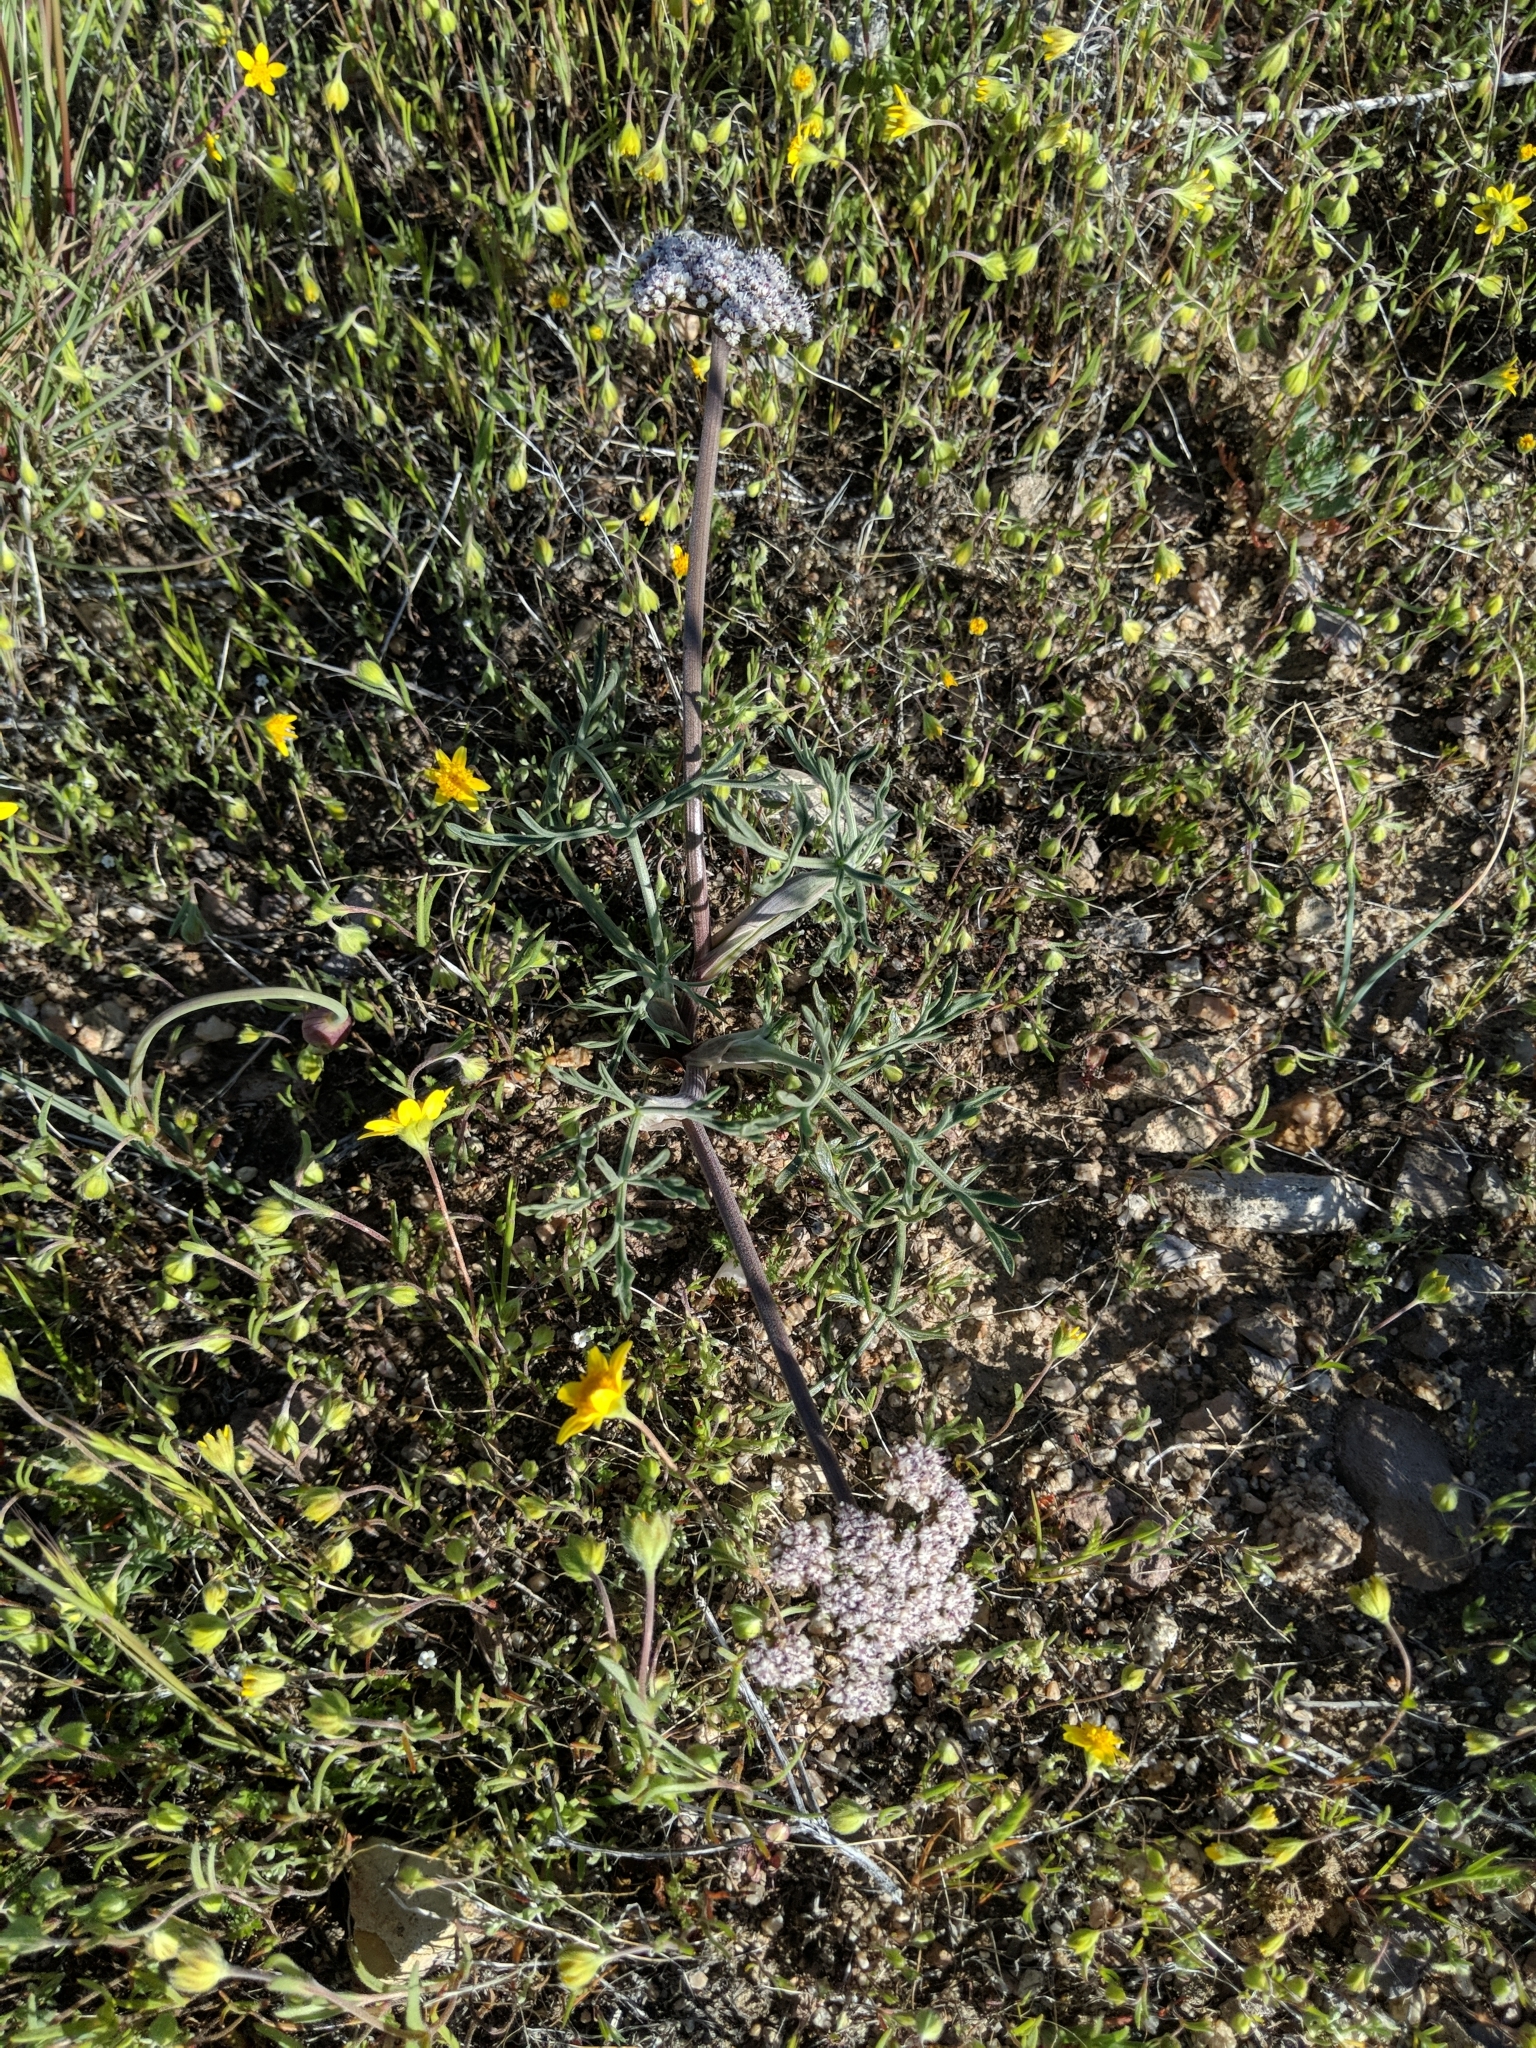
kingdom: Plantae
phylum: Tracheophyta
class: Magnoliopsida
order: Apiales
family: Apiaceae
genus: Lomatium
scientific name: Lomatium nevadense
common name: Nevada lomatium
